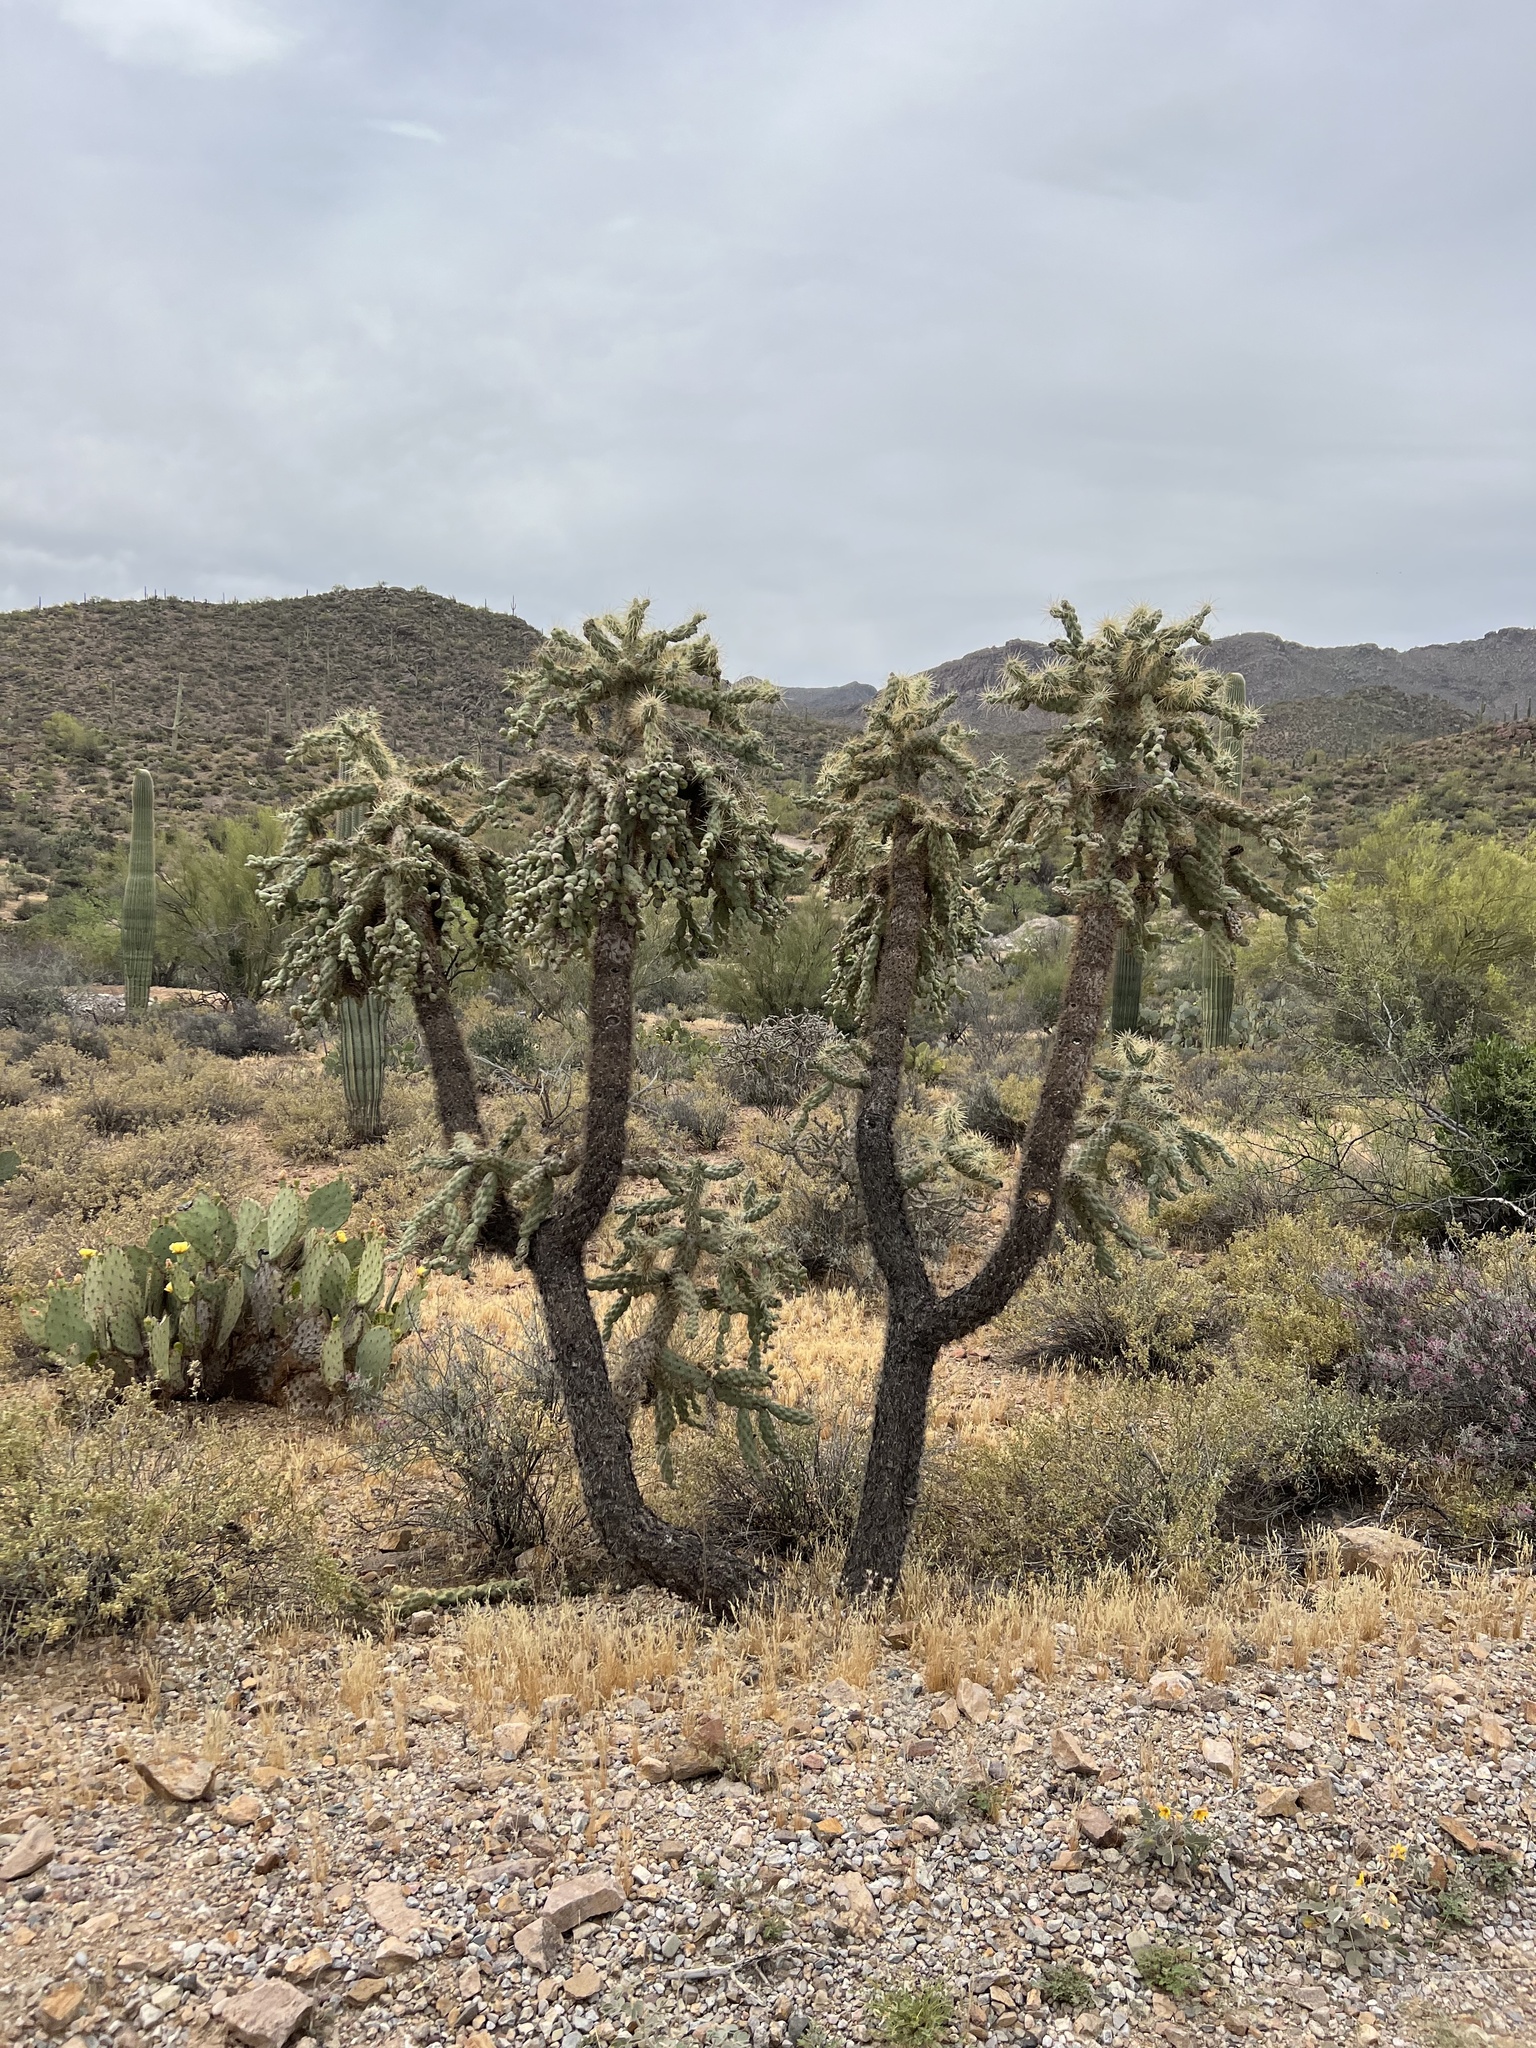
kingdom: Plantae
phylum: Tracheophyta
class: Magnoliopsida
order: Caryophyllales
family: Cactaceae
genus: Cylindropuntia
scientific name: Cylindropuntia fulgida
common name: Jumping cholla
